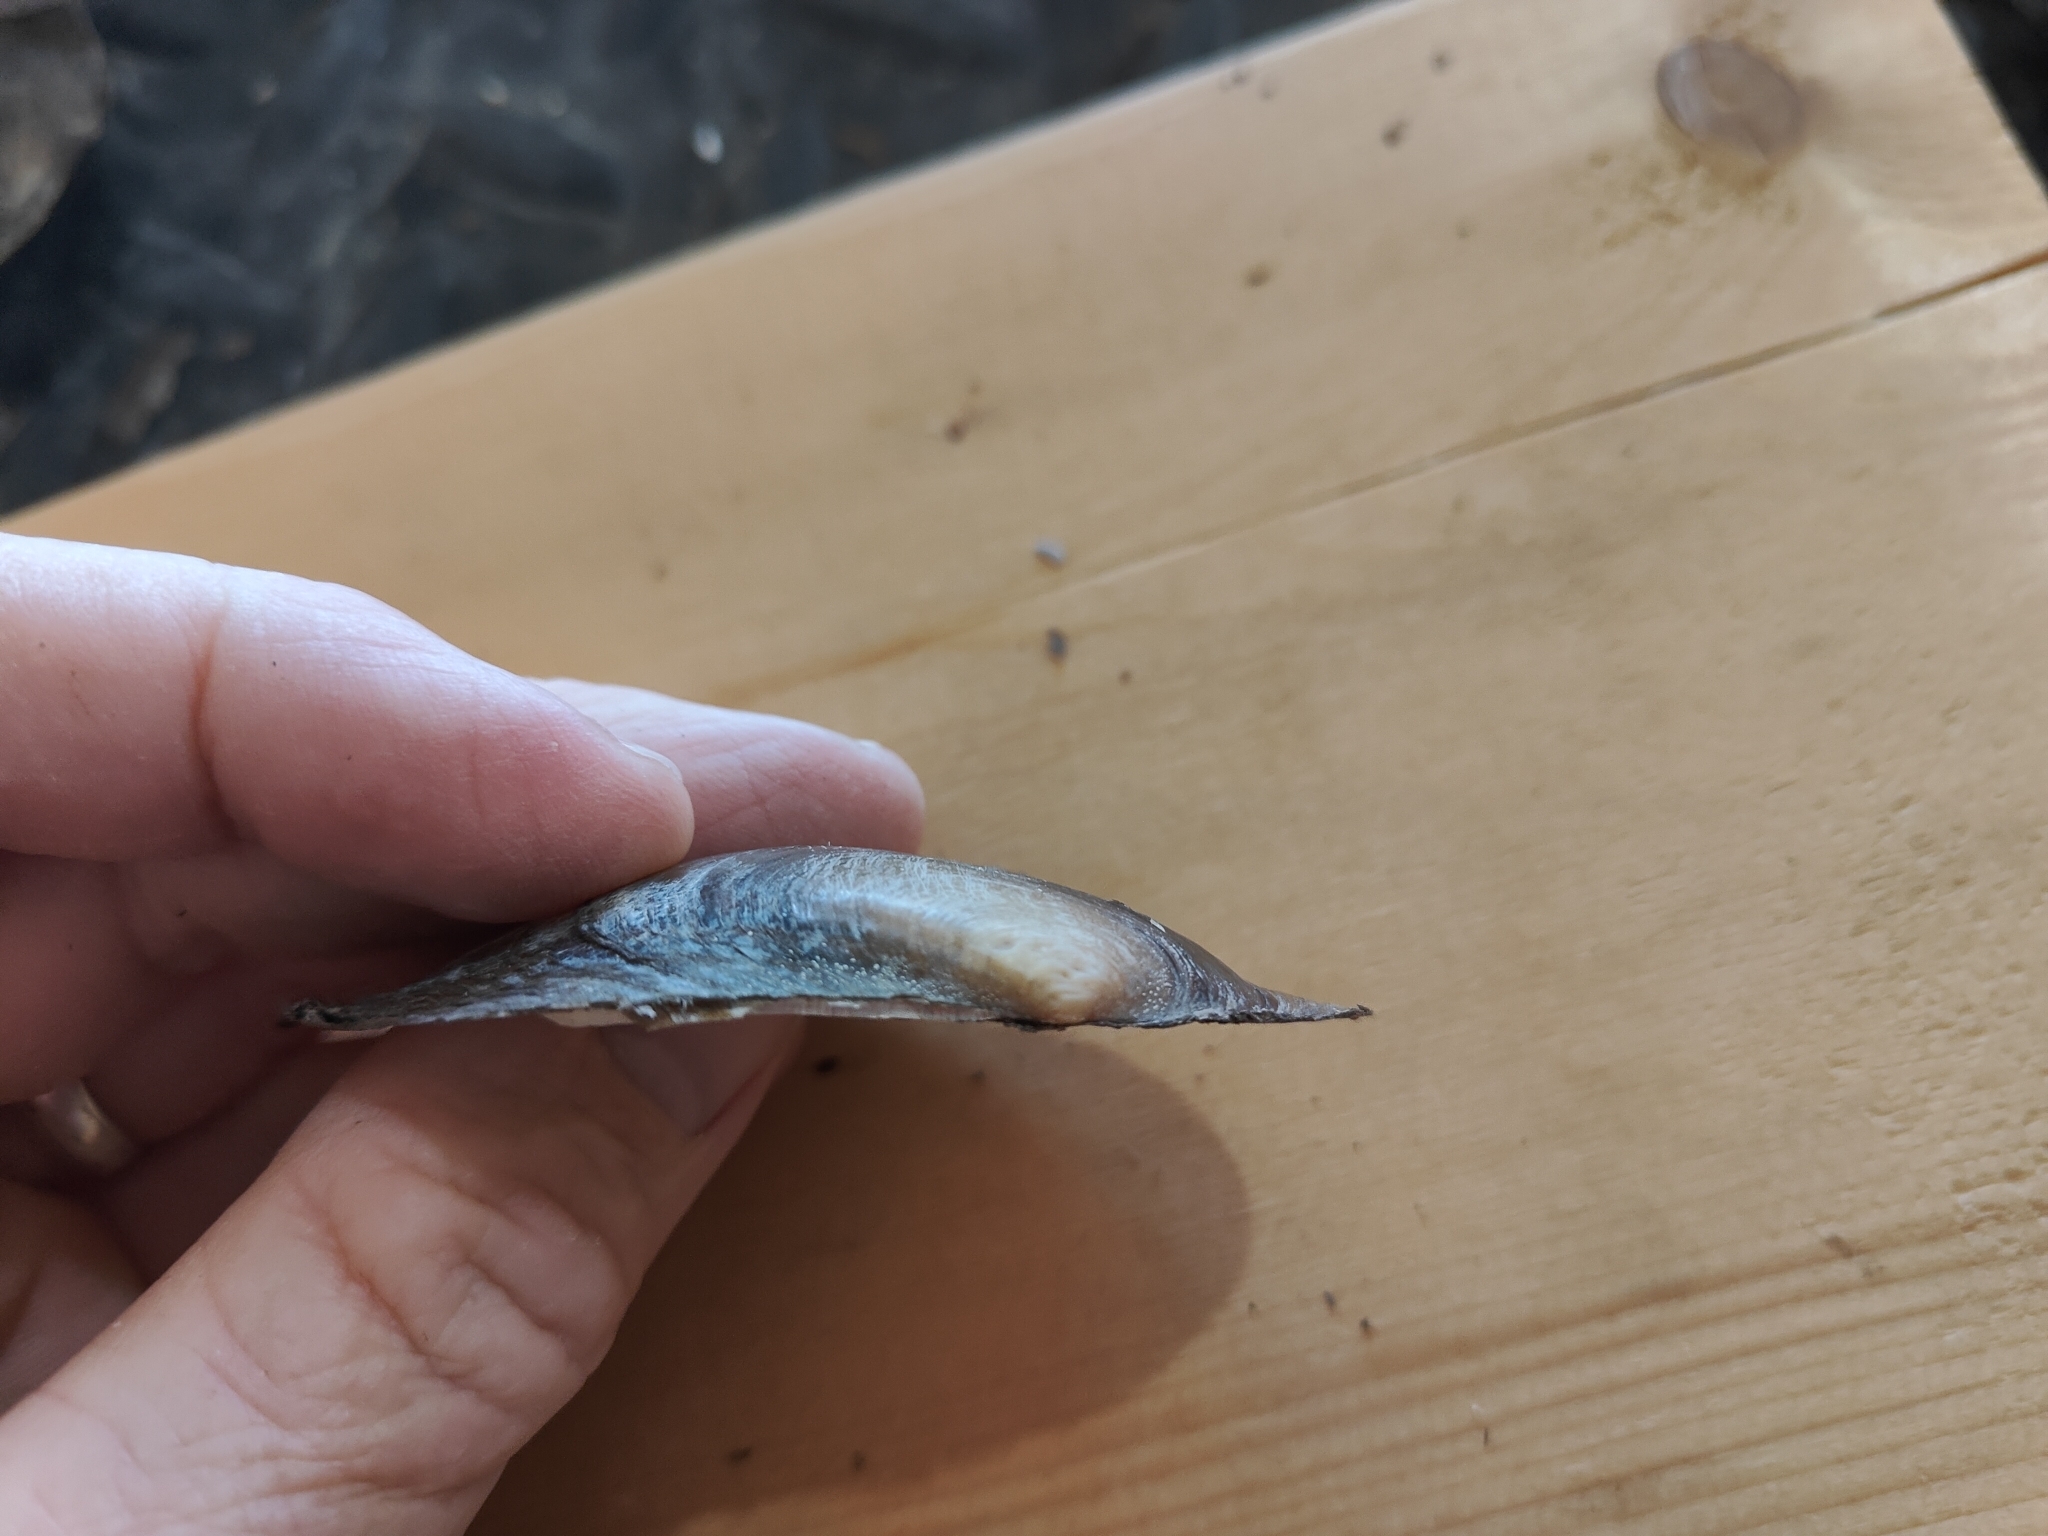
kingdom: Animalia
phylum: Mollusca
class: Bivalvia
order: Unionida
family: Unionidae
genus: Potamilus
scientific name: Potamilus fragilis
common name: Fragile papershell
